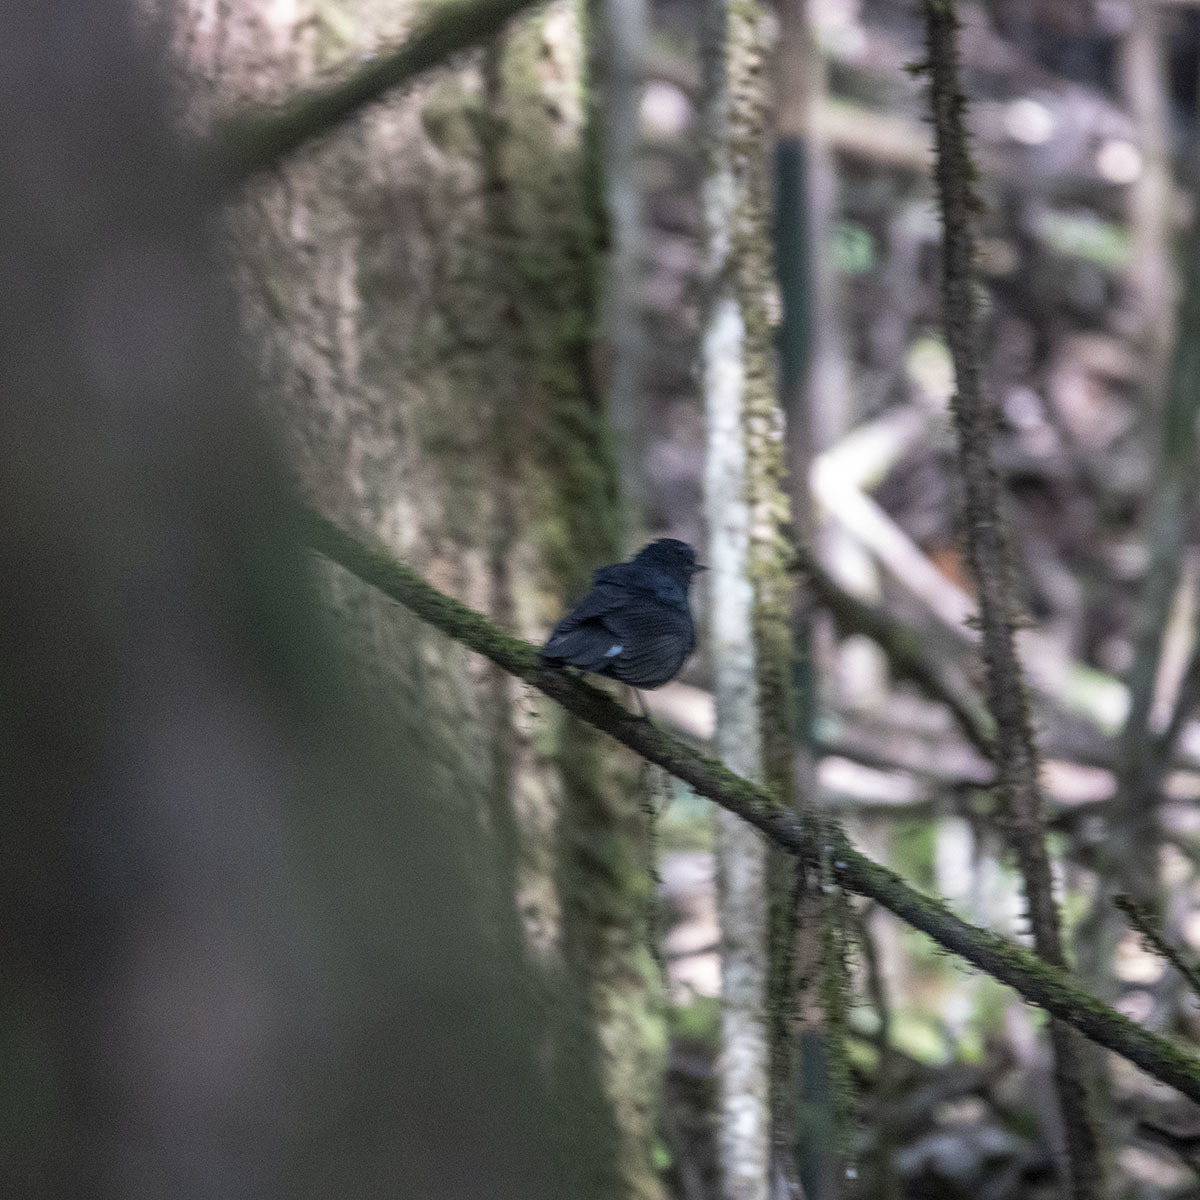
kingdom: Animalia
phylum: Chordata
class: Aves
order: Passeriformes
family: Muscicapidae
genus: Myiomela
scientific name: Myiomela leucura
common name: White-tailed robin
